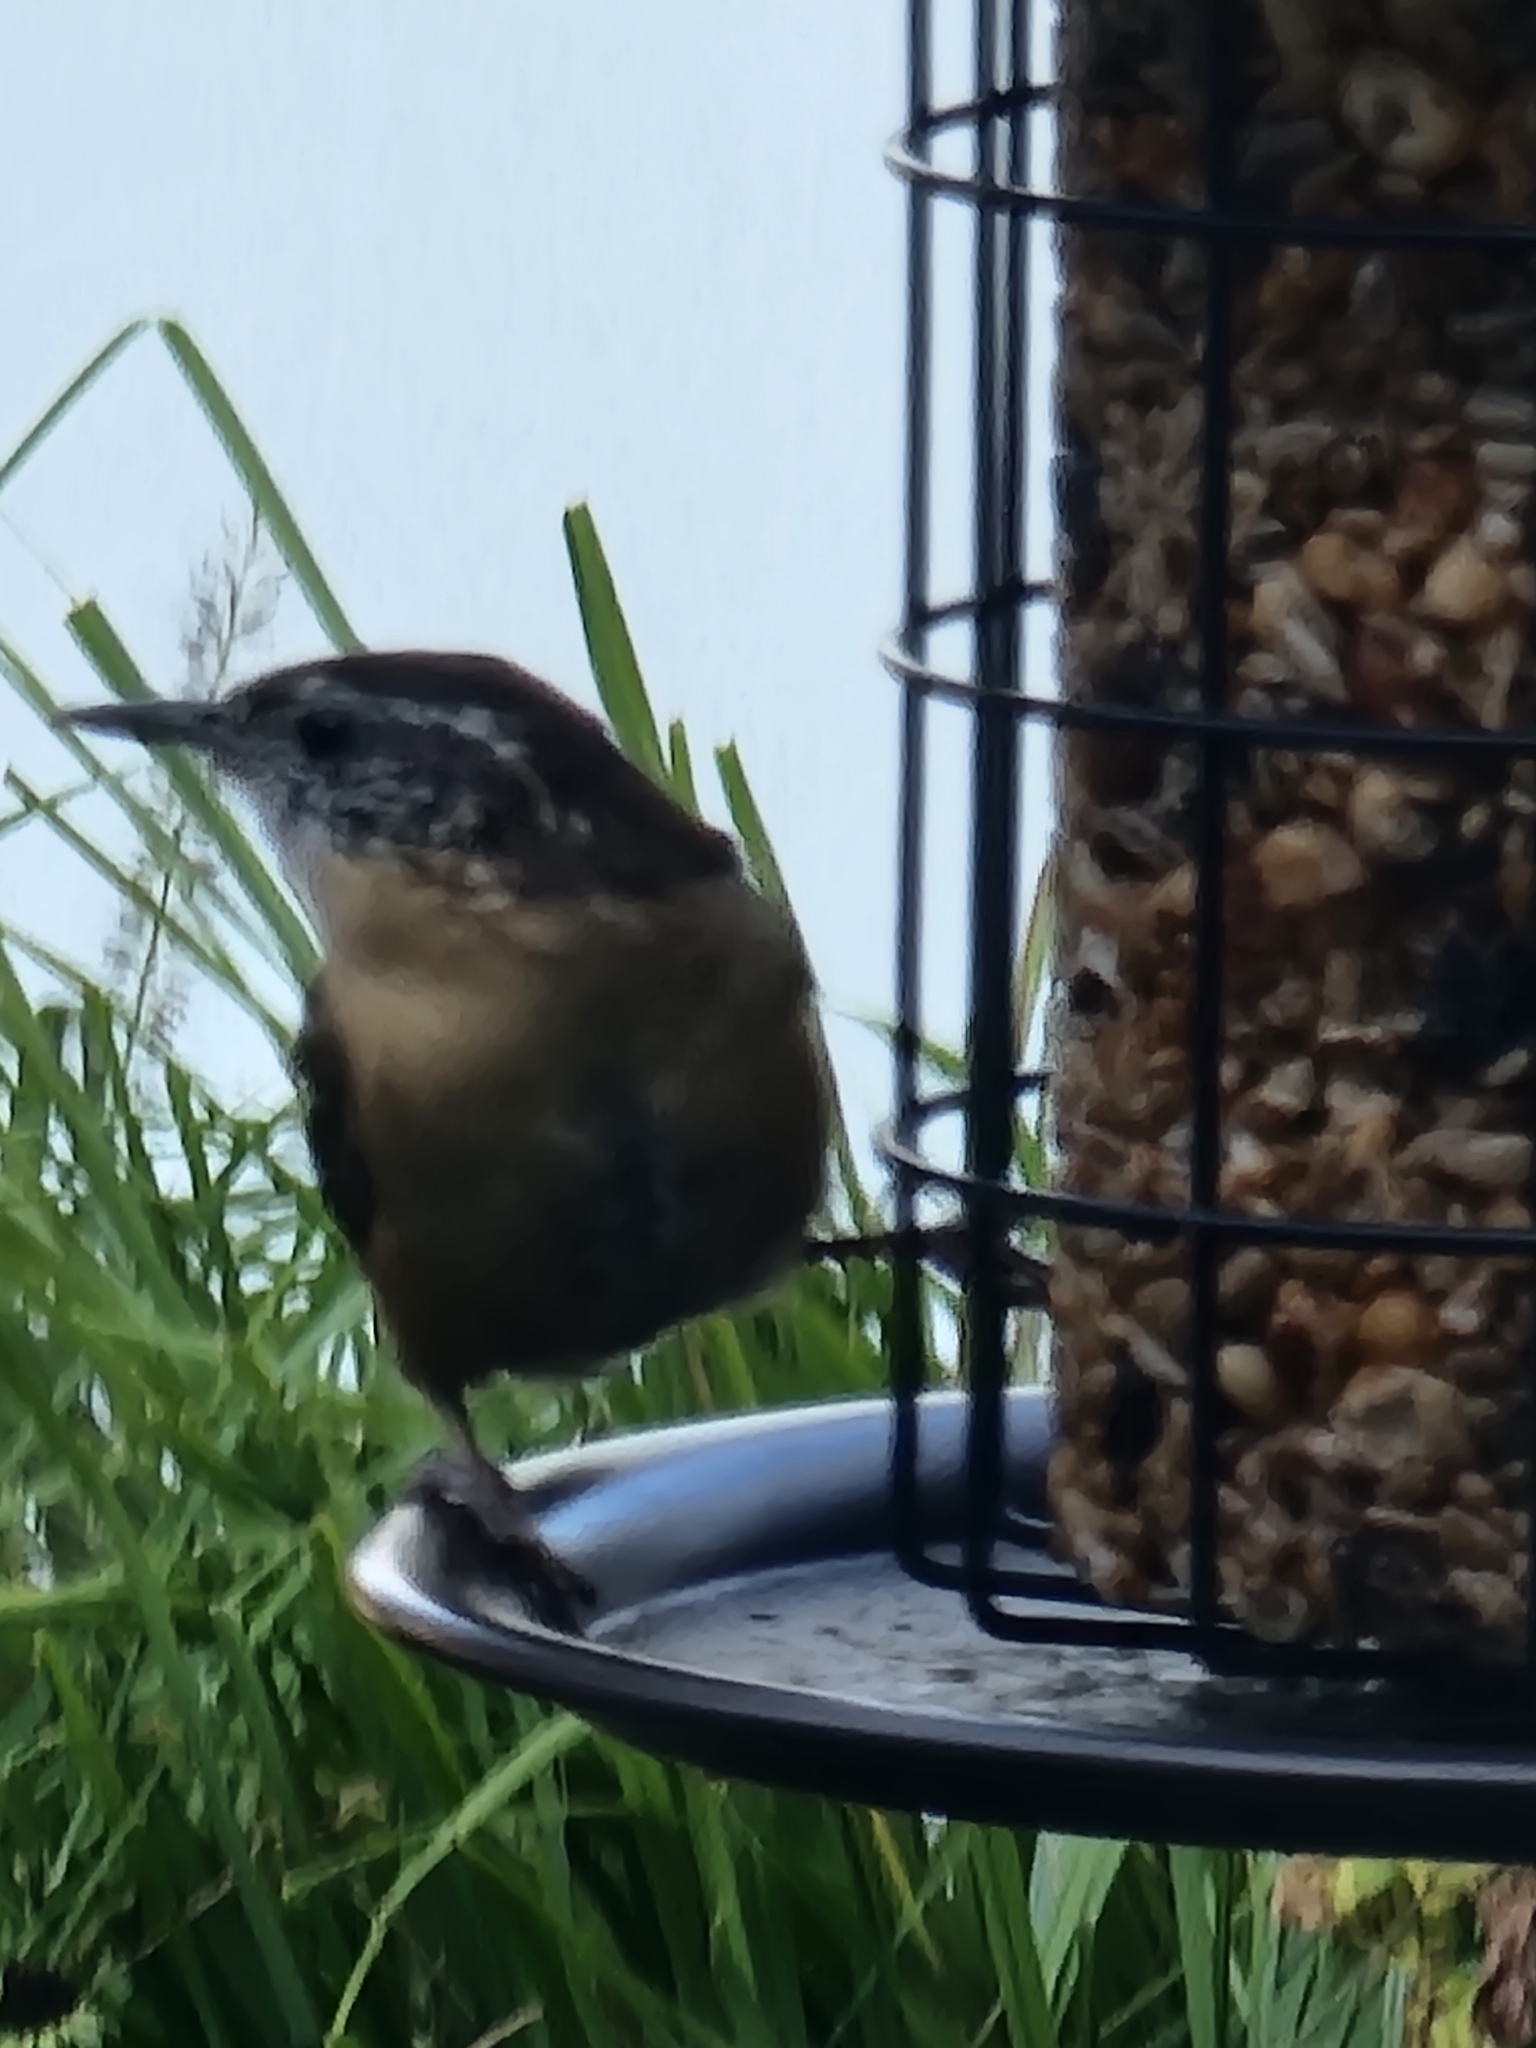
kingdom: Animalia
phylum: Chordata
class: Aves
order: Passeriformes
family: Troglodytidae
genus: Thryothorus
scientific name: Thryothorus ludovicianus
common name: Carolina wren
